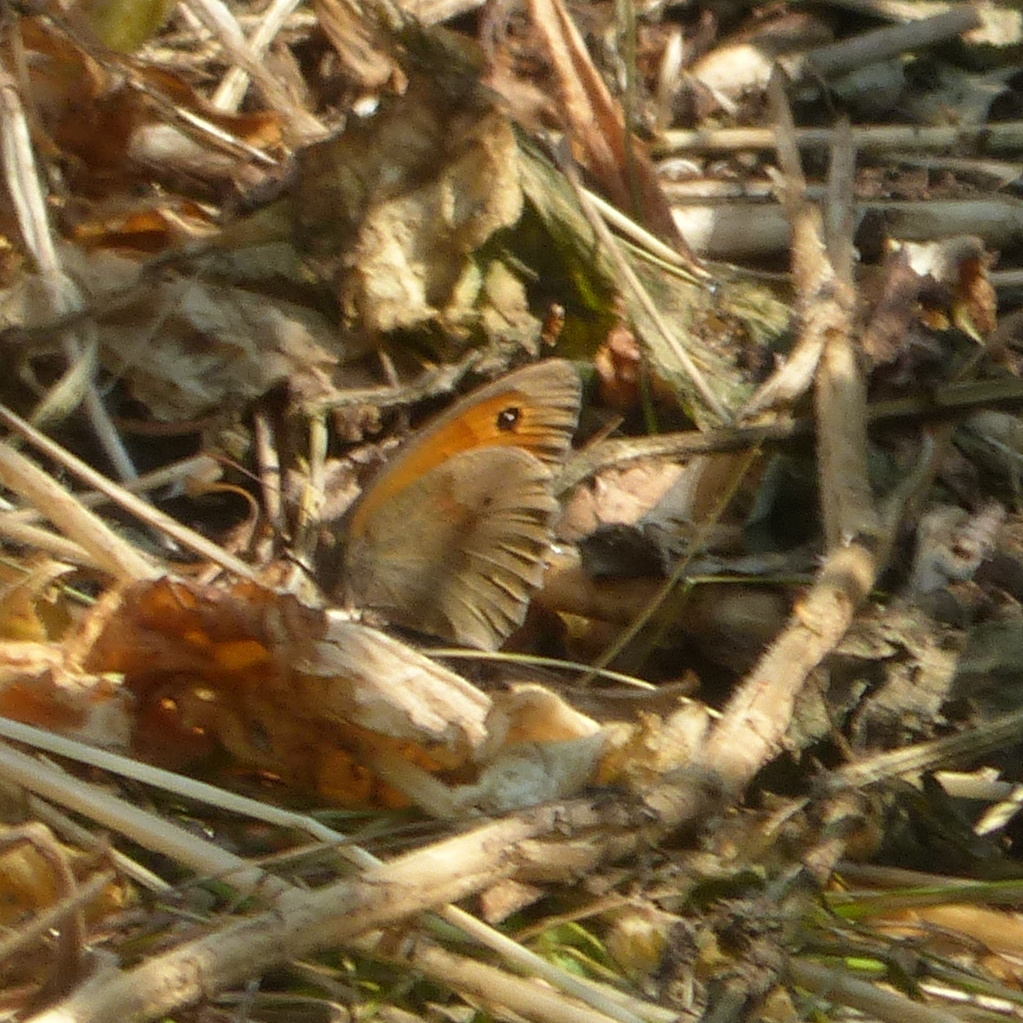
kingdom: Animalia
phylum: Arthropoda
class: Insecta
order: Lepidoptera
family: Nymphalidae
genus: Maniola
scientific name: Maniola jurtina
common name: Meadow brown
